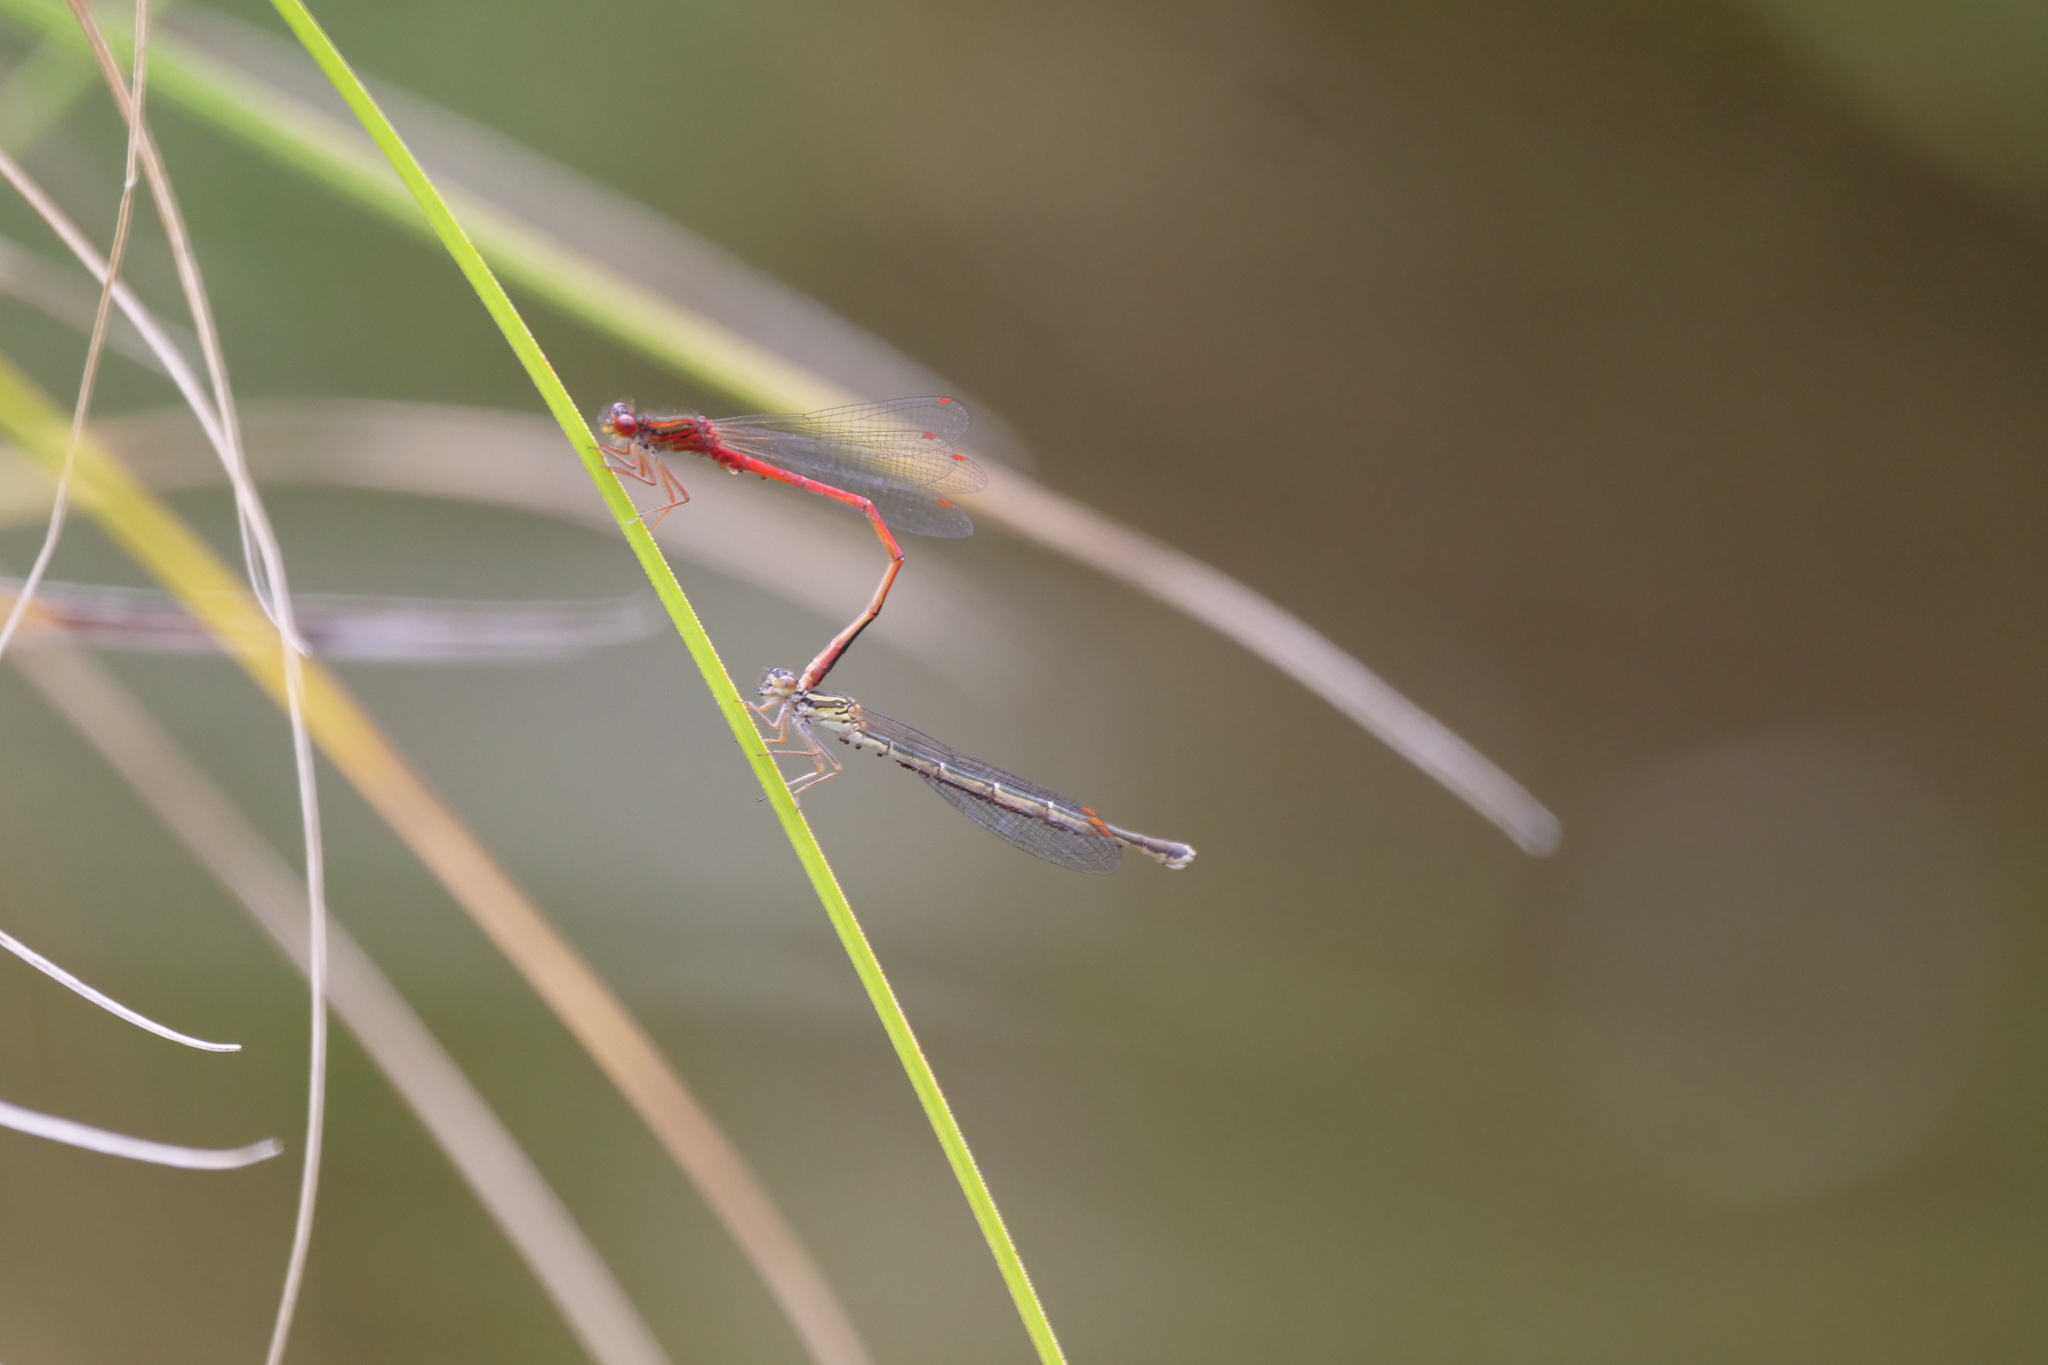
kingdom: Animalia
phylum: Arthropoda
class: Insecta
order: Odonata
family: Coenagrionidae
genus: Xanthocnemis
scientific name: Xanthocnemis zealandica
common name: Common redcoat damselfly
